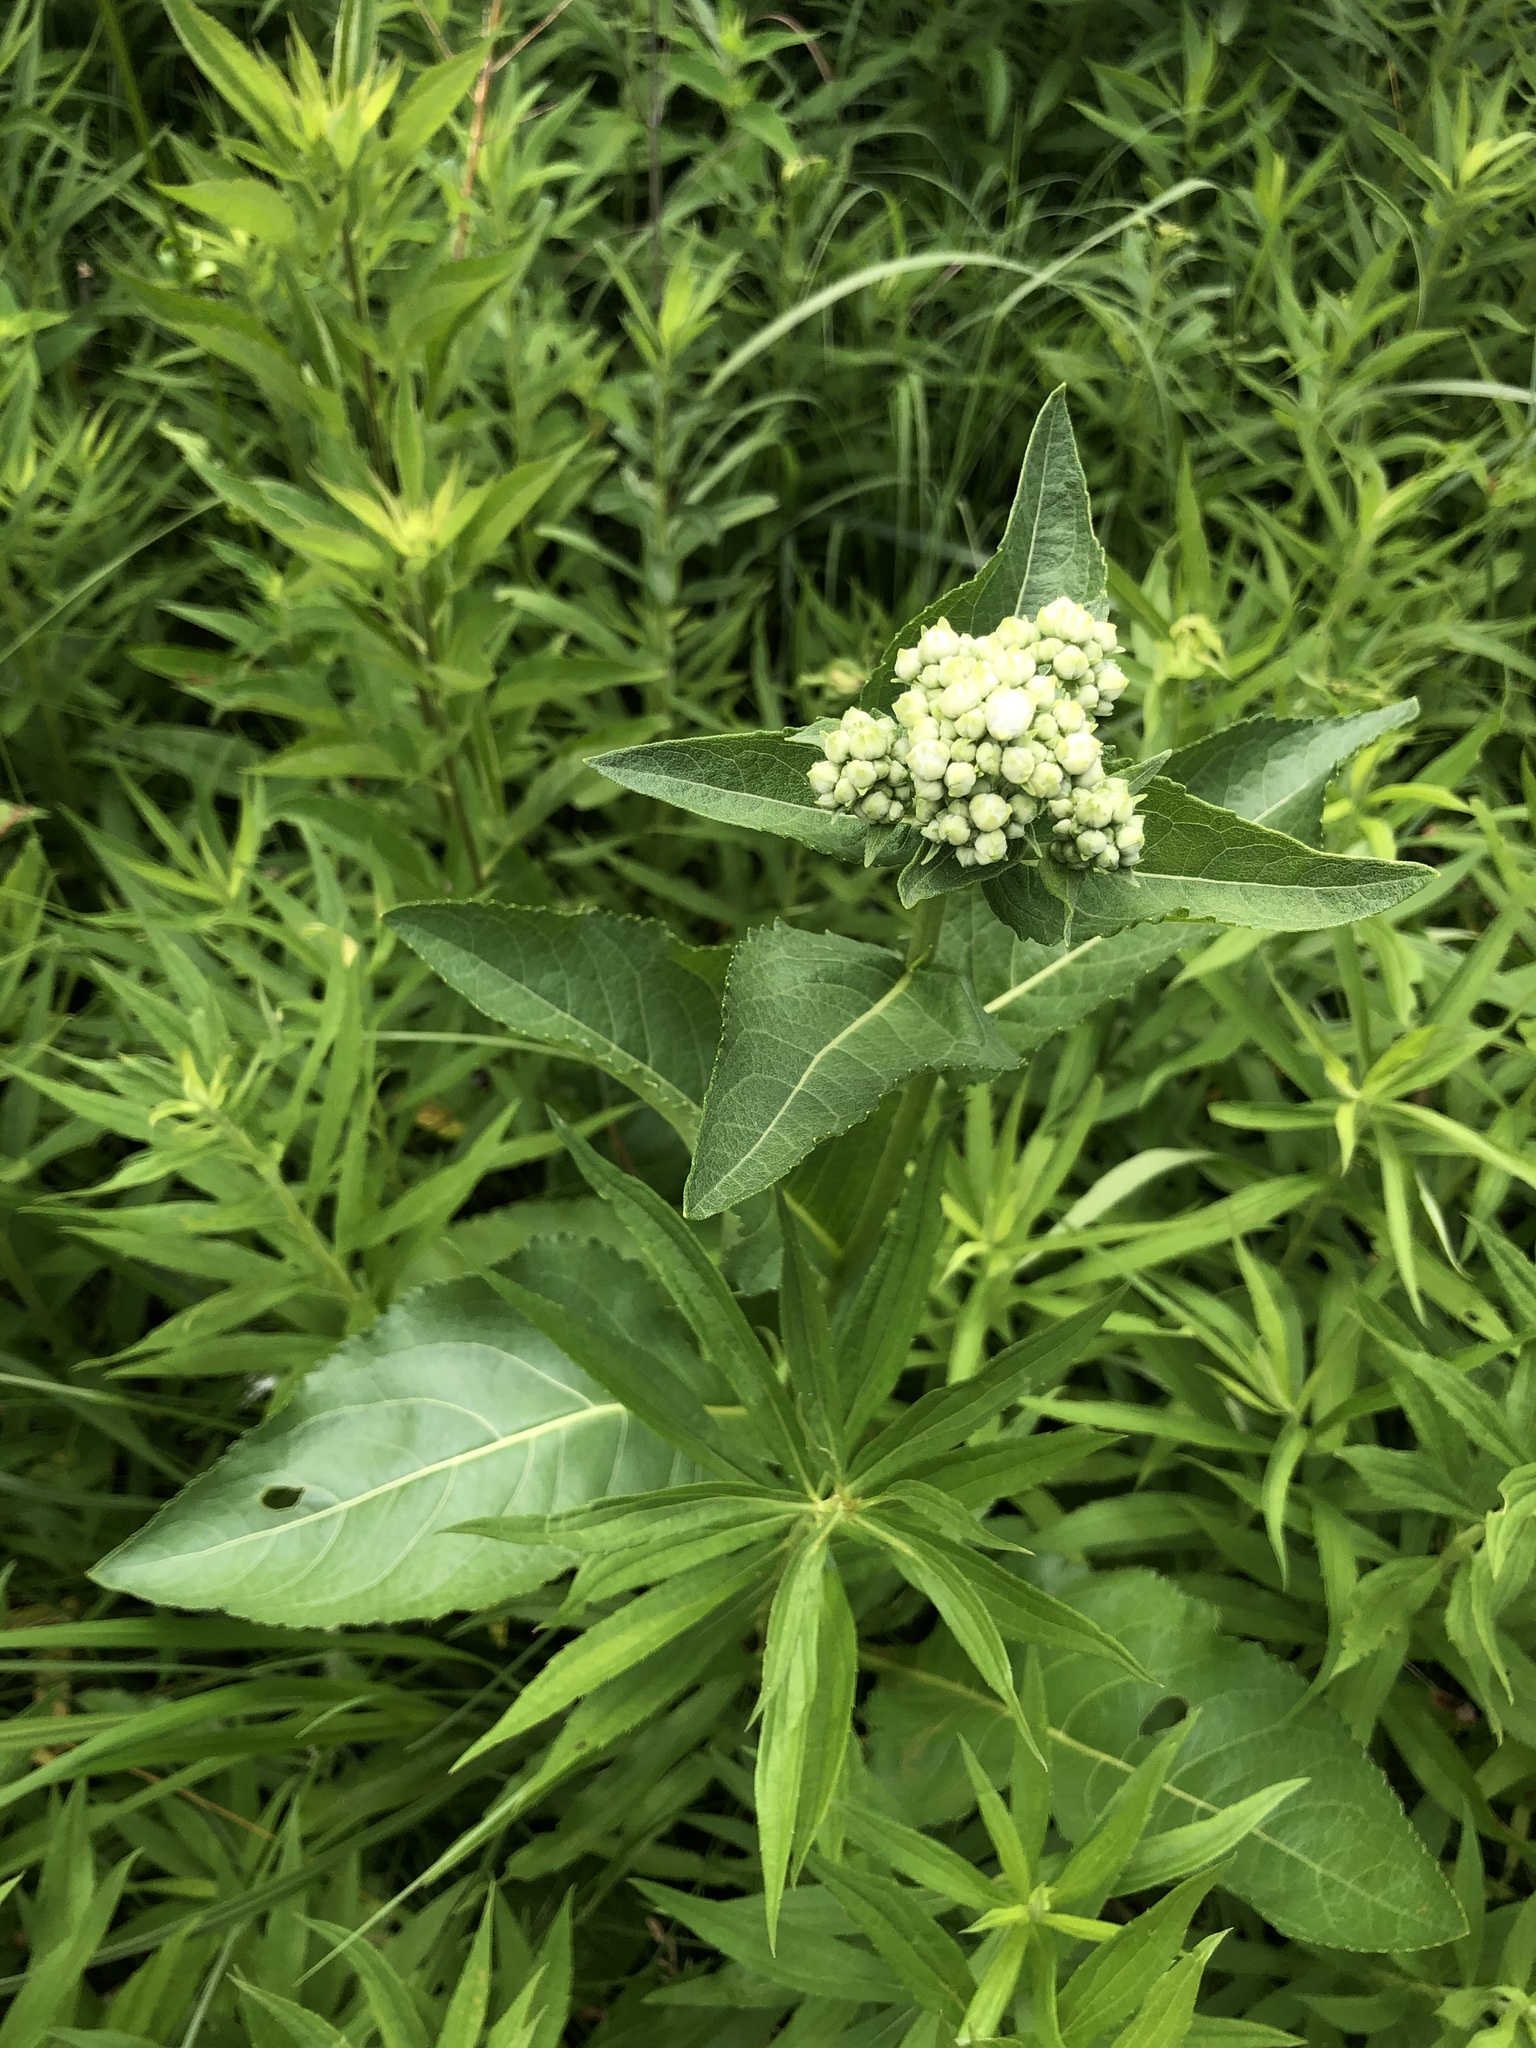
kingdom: Plantae
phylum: Tracheophyta
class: Magnoliopsida
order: Asterales
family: Asteraceae
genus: Parthenium
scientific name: Parthenium integrifolium
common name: American feverfew
